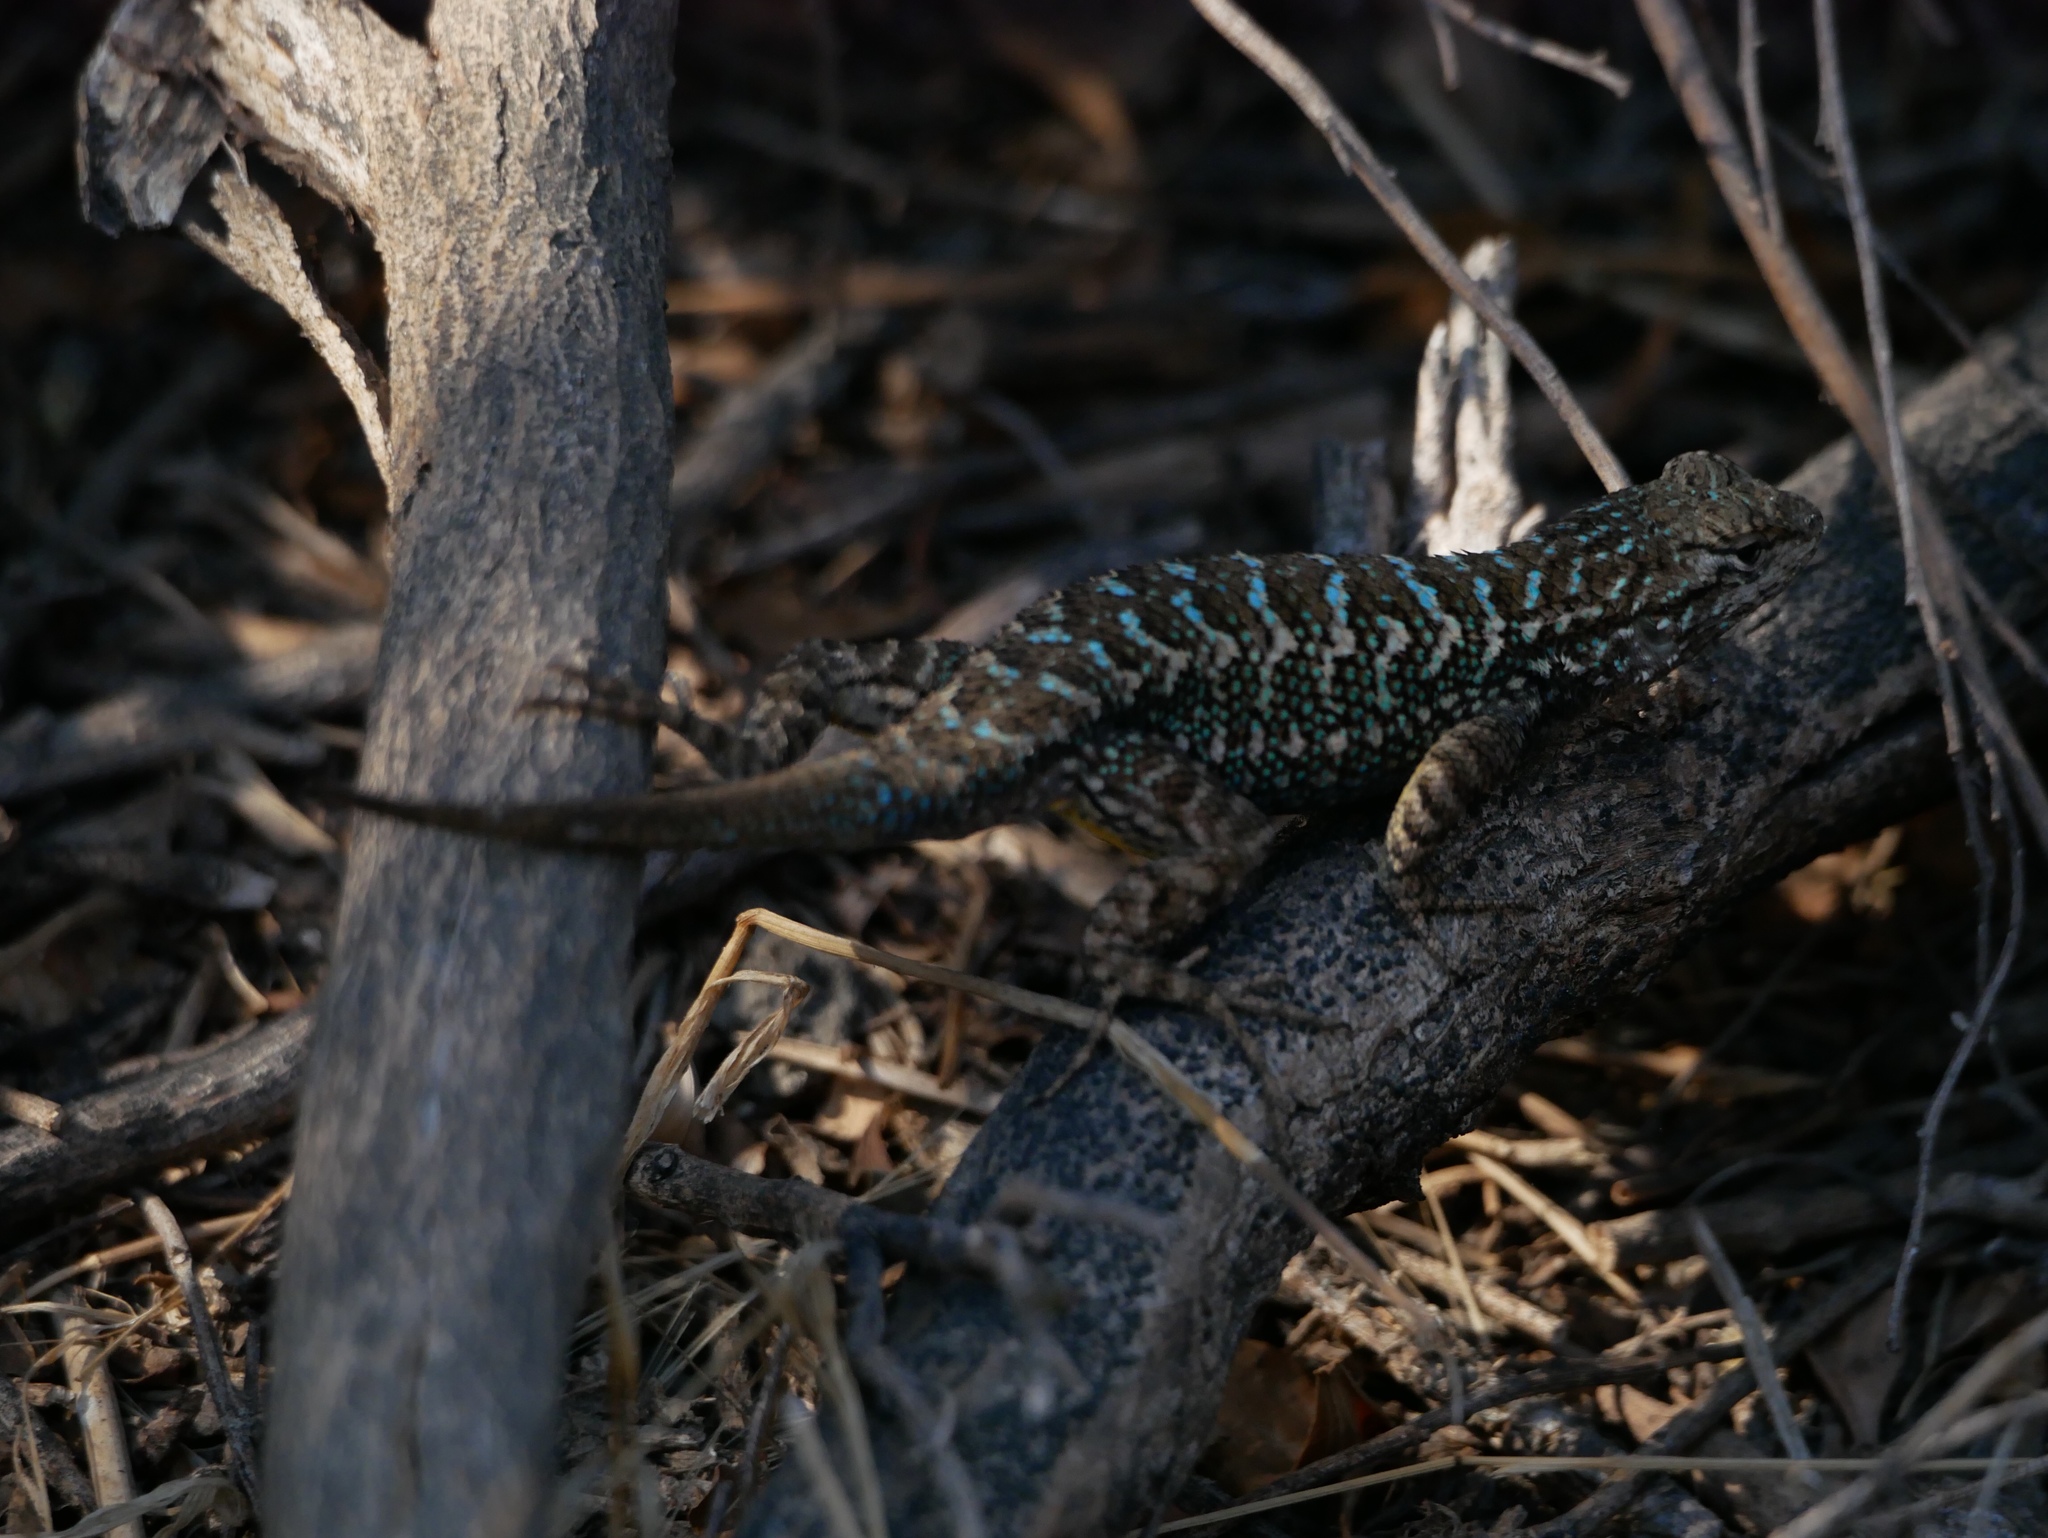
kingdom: Animalia
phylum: Chordata
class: Squamata
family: Phrynosomatidae
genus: Sceloporus
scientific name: Sceloporus occidentalis
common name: Western fence lizard
